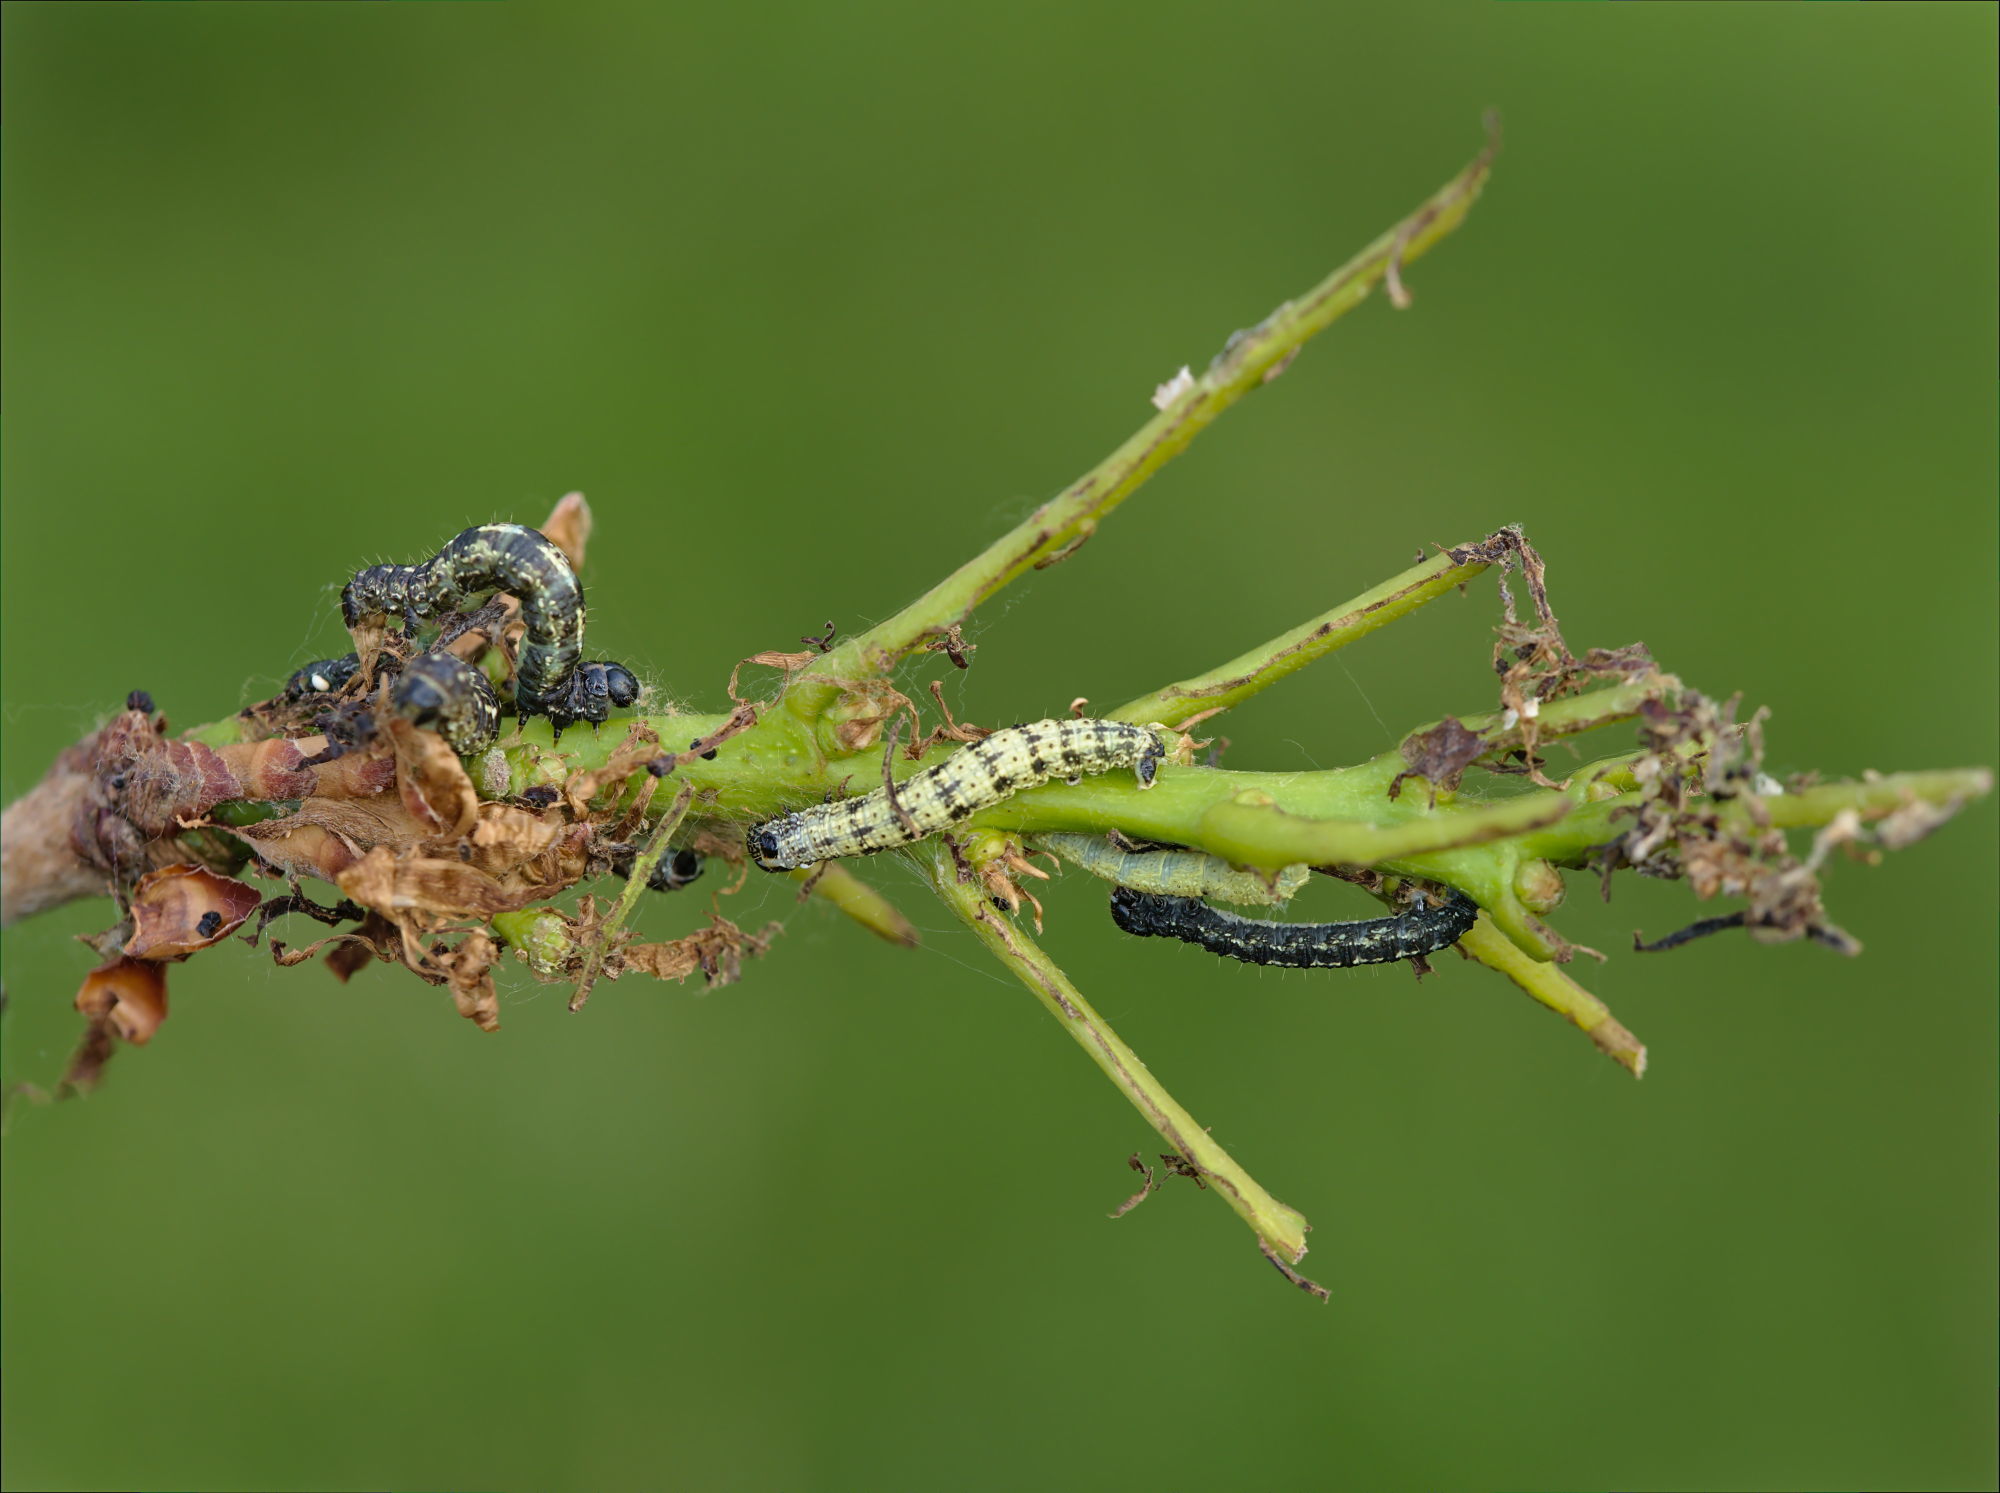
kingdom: Animalia
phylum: Arthropoda
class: Insecta
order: Lepidoptera
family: Geometridae
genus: Agriopis
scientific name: Agriopis leucophaearia
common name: Spring usher
